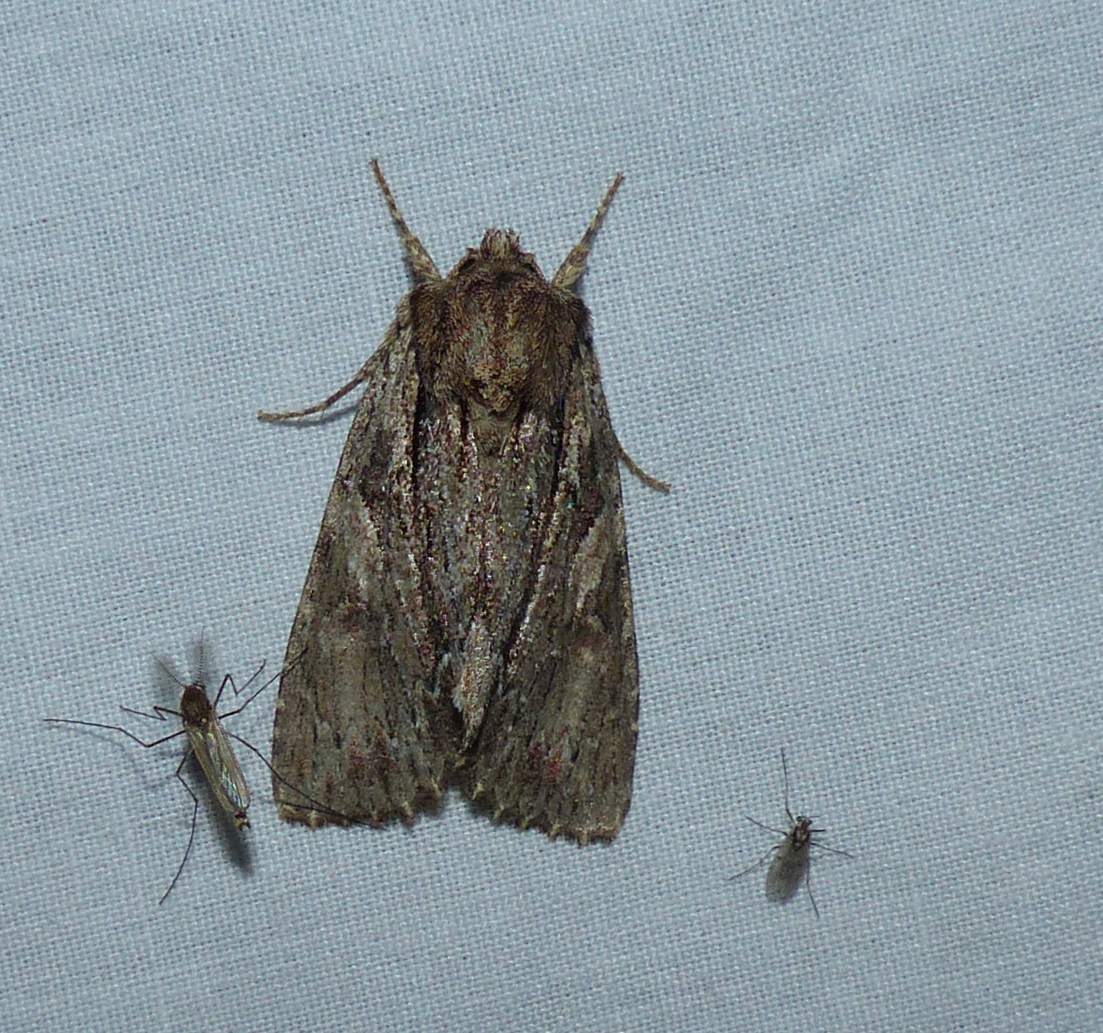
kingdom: Animalia
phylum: Arthropoda
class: Insecta
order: Lepidoptera
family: Noctuidae
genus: Achatia
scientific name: Achatia confusa
